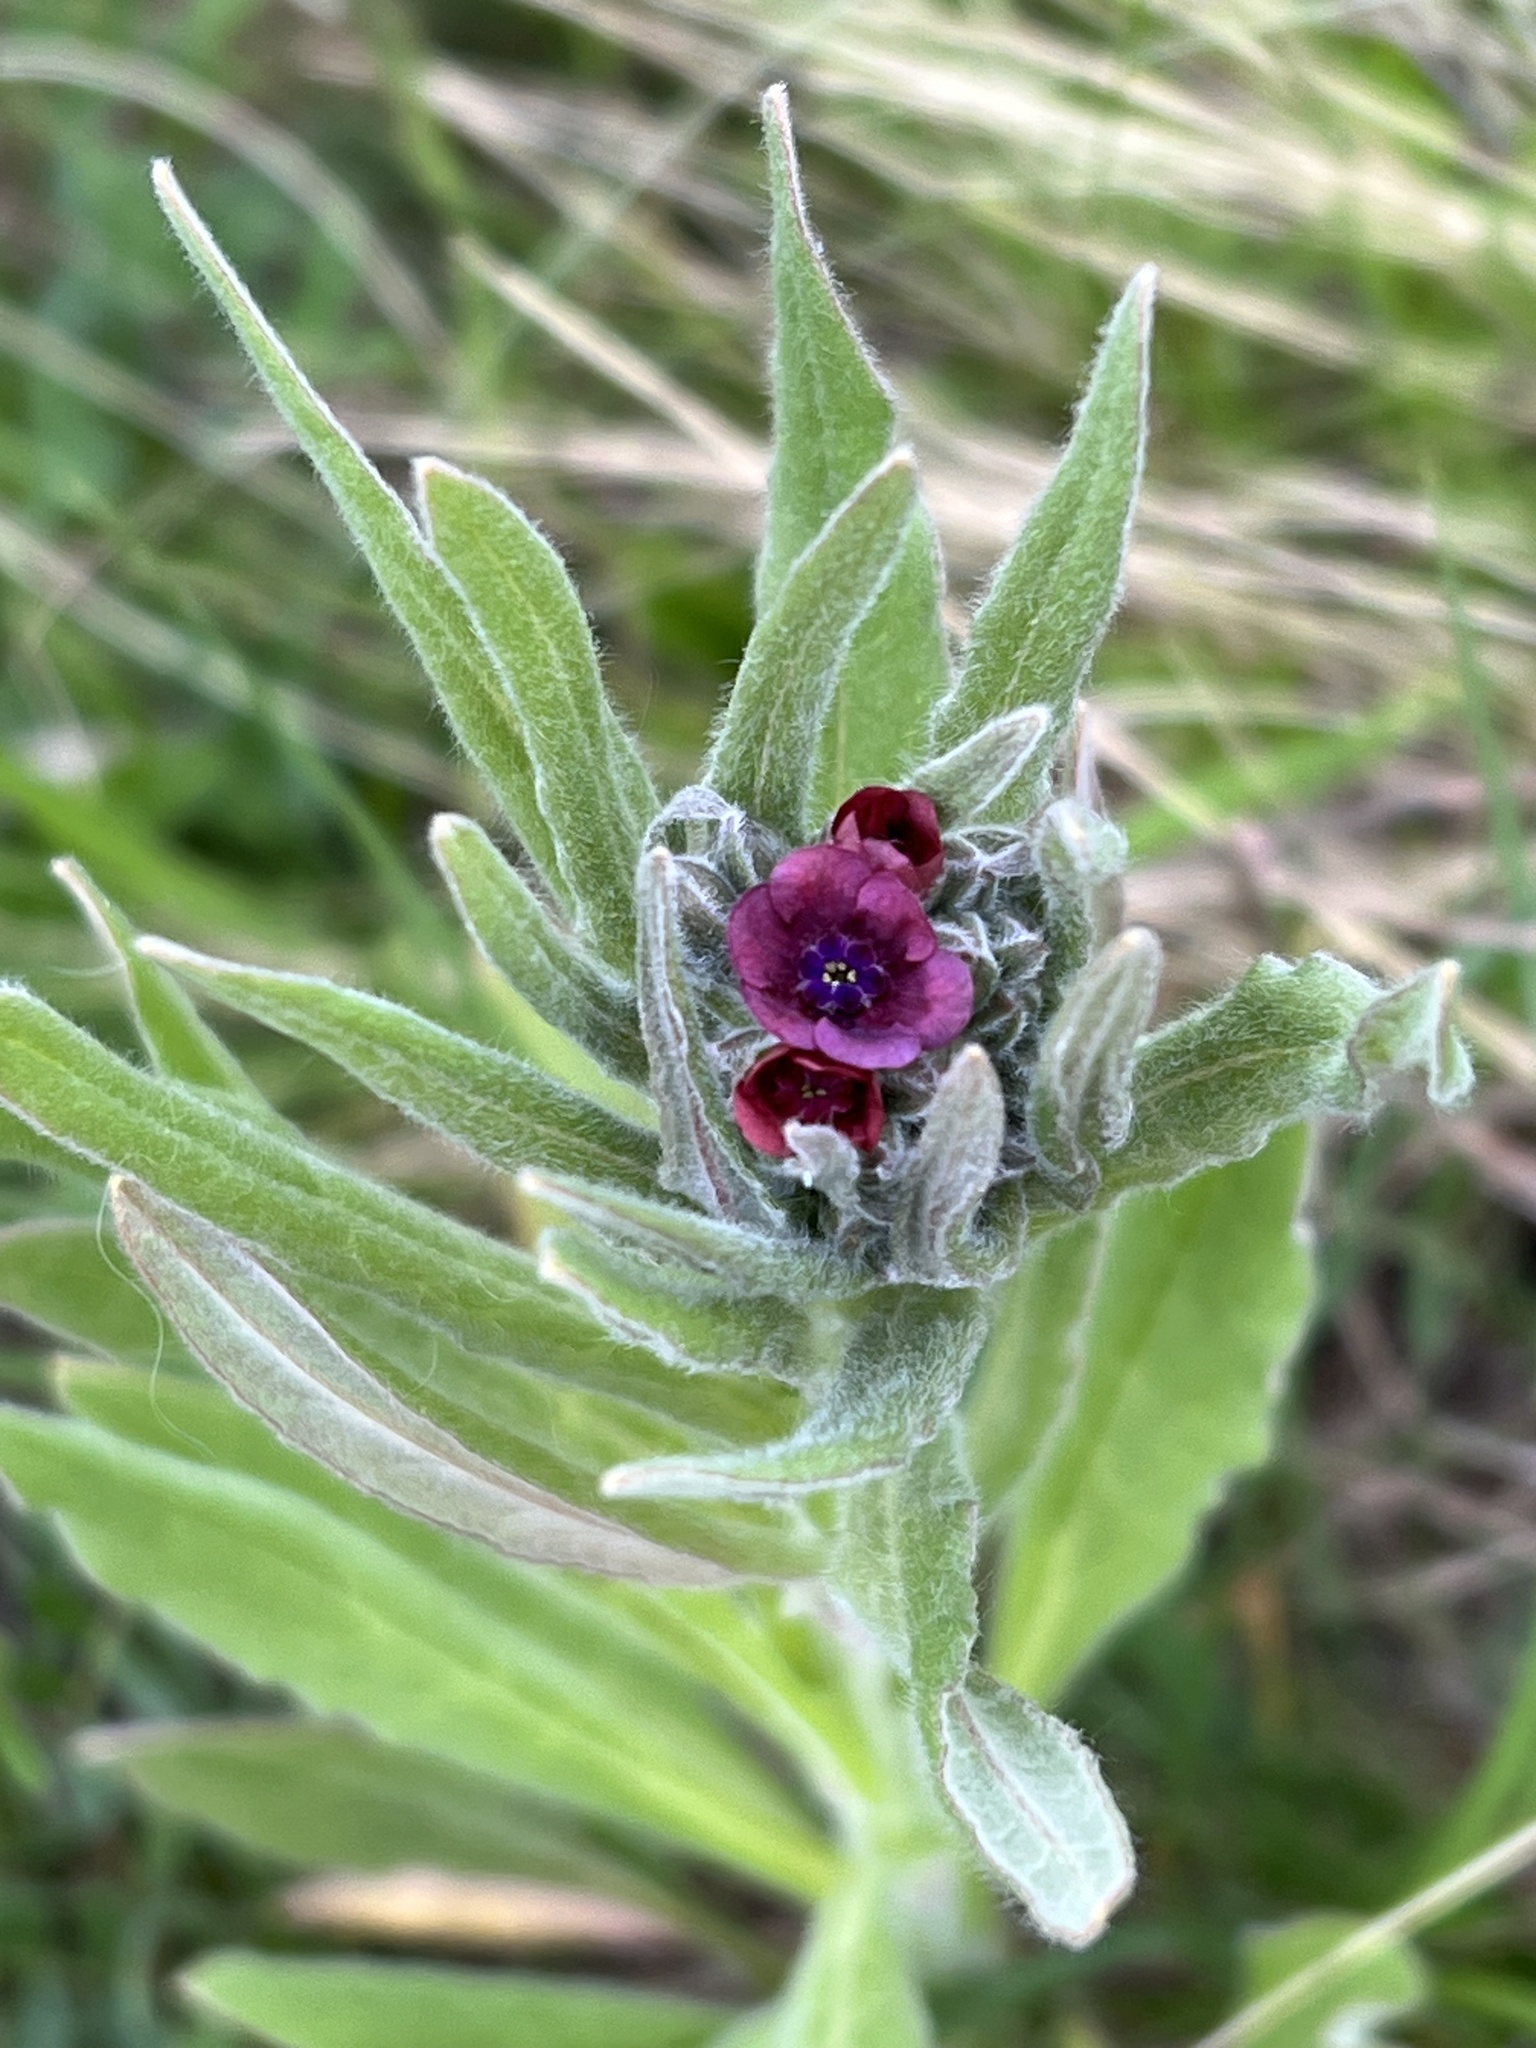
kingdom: Plantae
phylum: Tracheophyta
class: Magnoliopsida
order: Boraginales
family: Boraginaceae
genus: Cynoglossum
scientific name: Cynoglossum officinale
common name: Hound's-tongue
